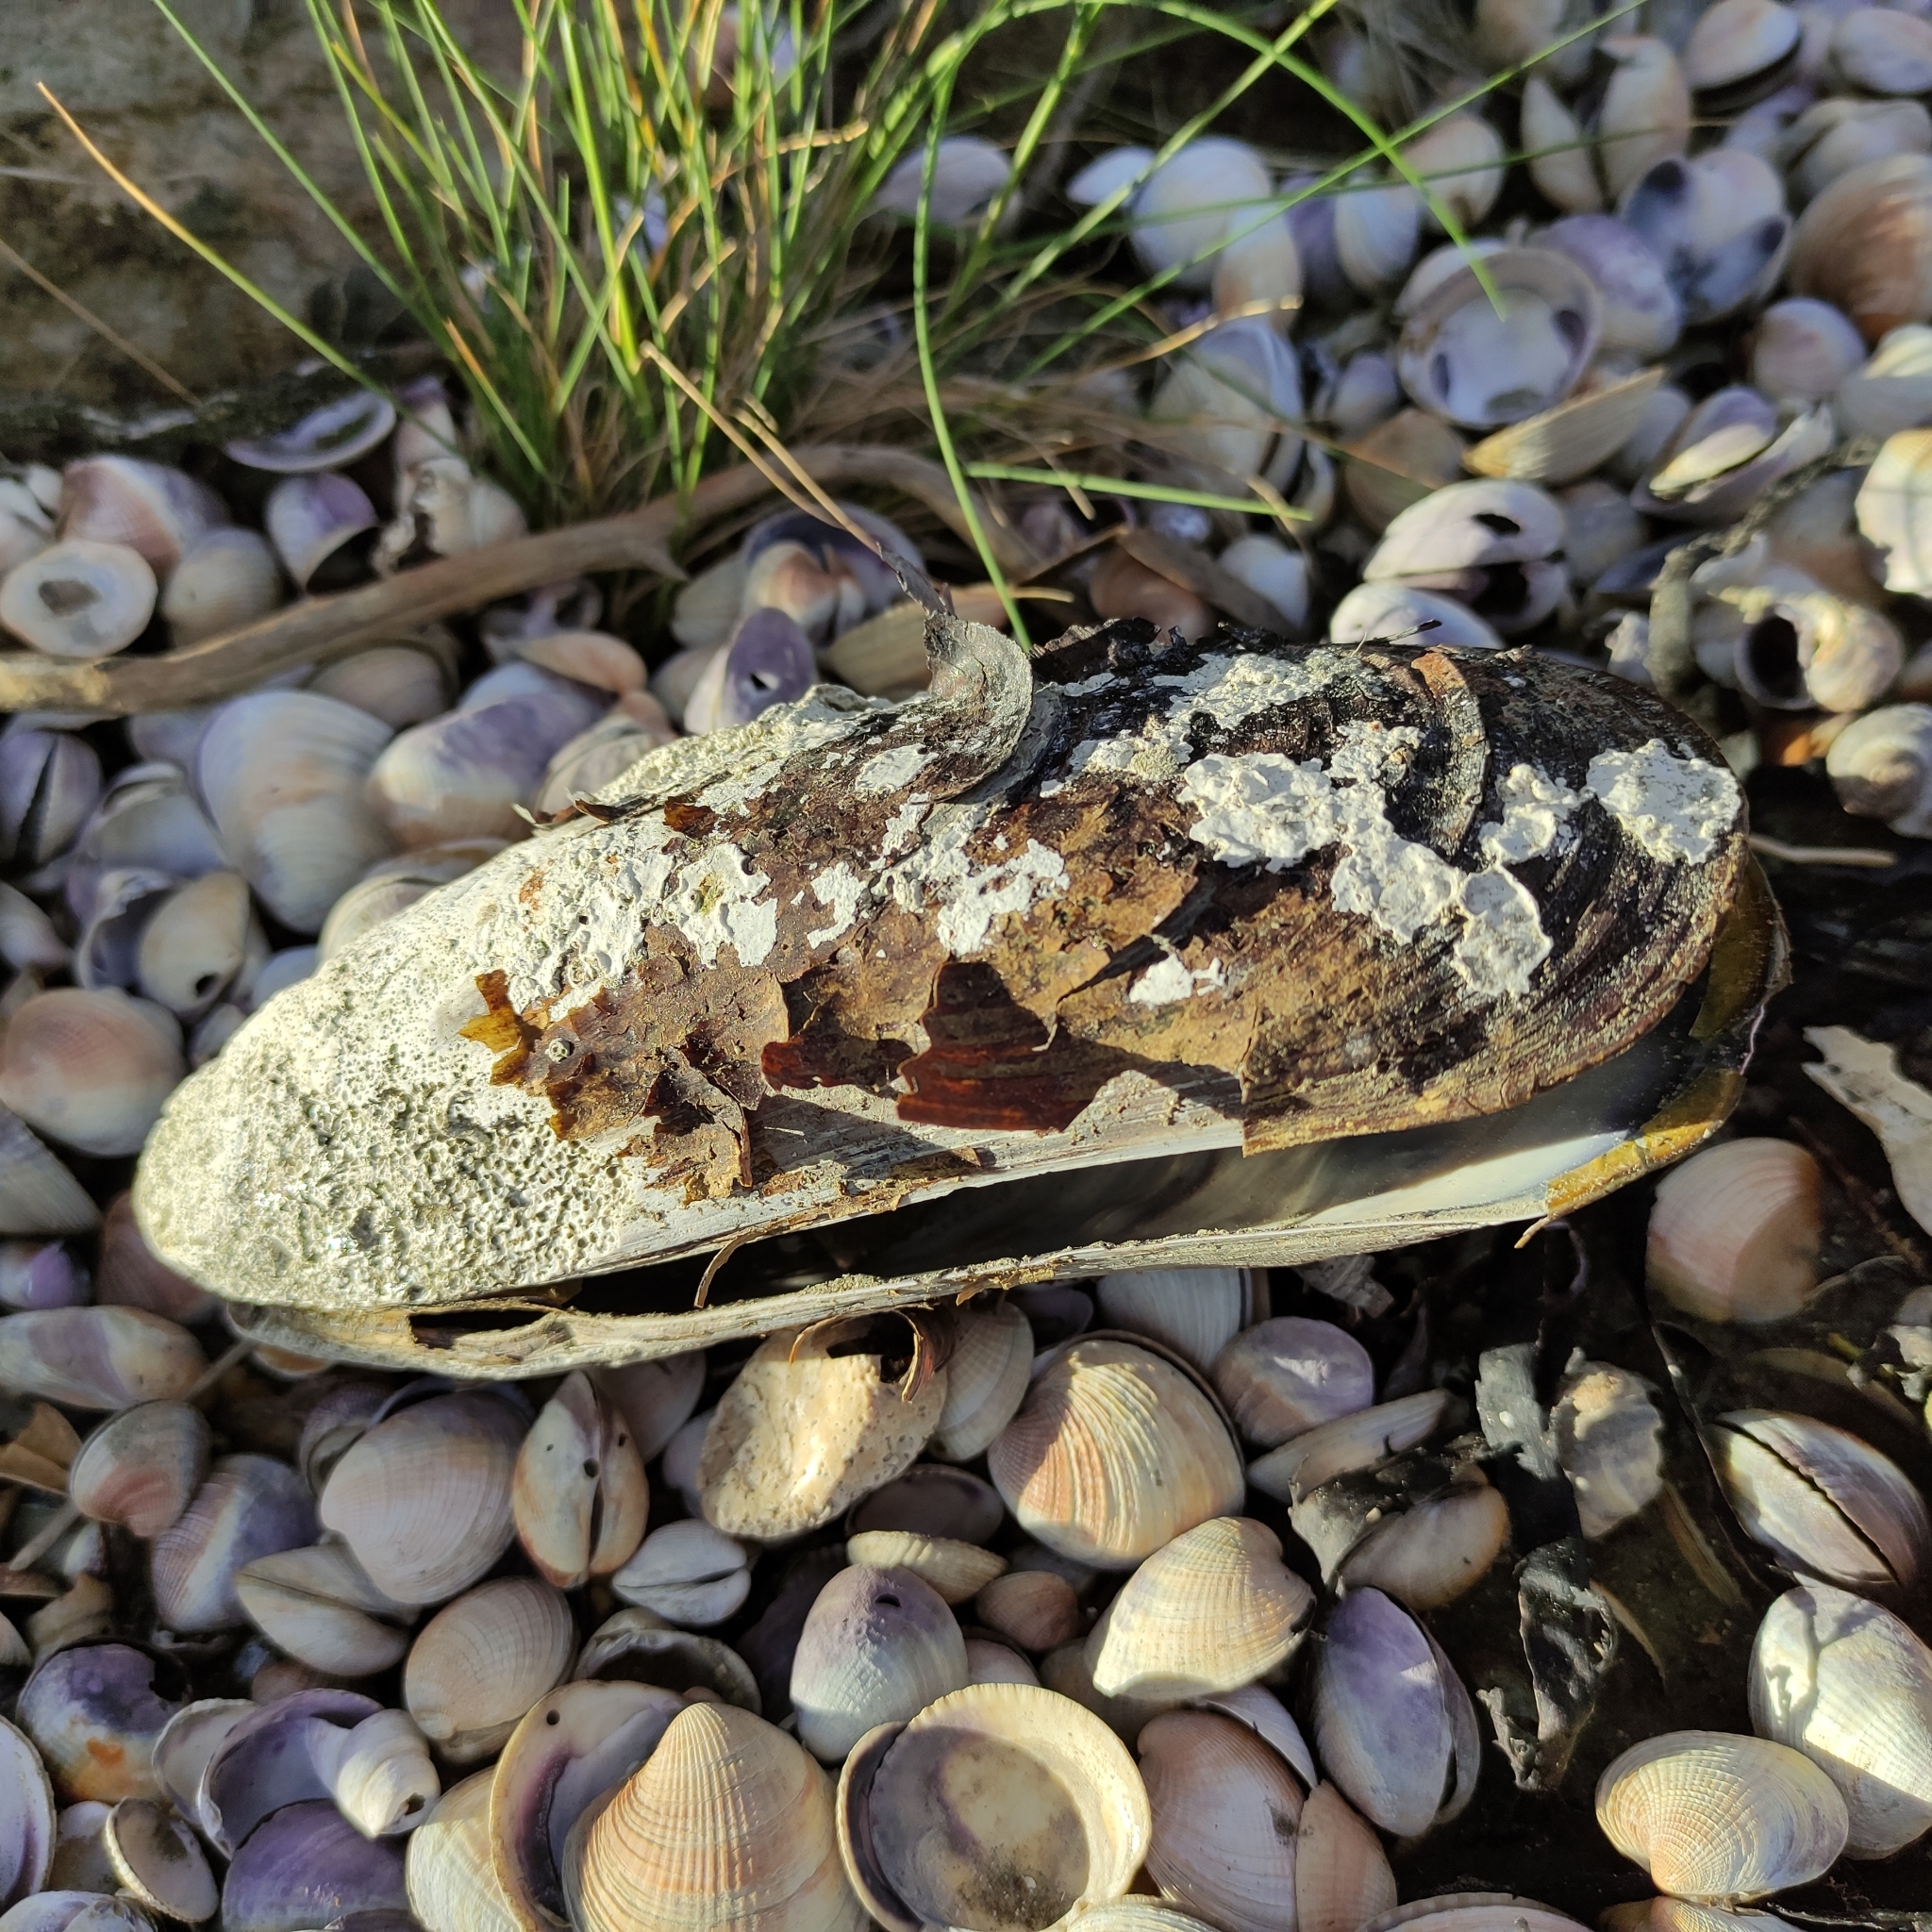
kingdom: Animalia
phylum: Mollusca
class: Bivalvia
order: Mytilida
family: Mytilidae
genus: Perna
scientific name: Perna canaliculus
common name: New zealand greenshelltm
